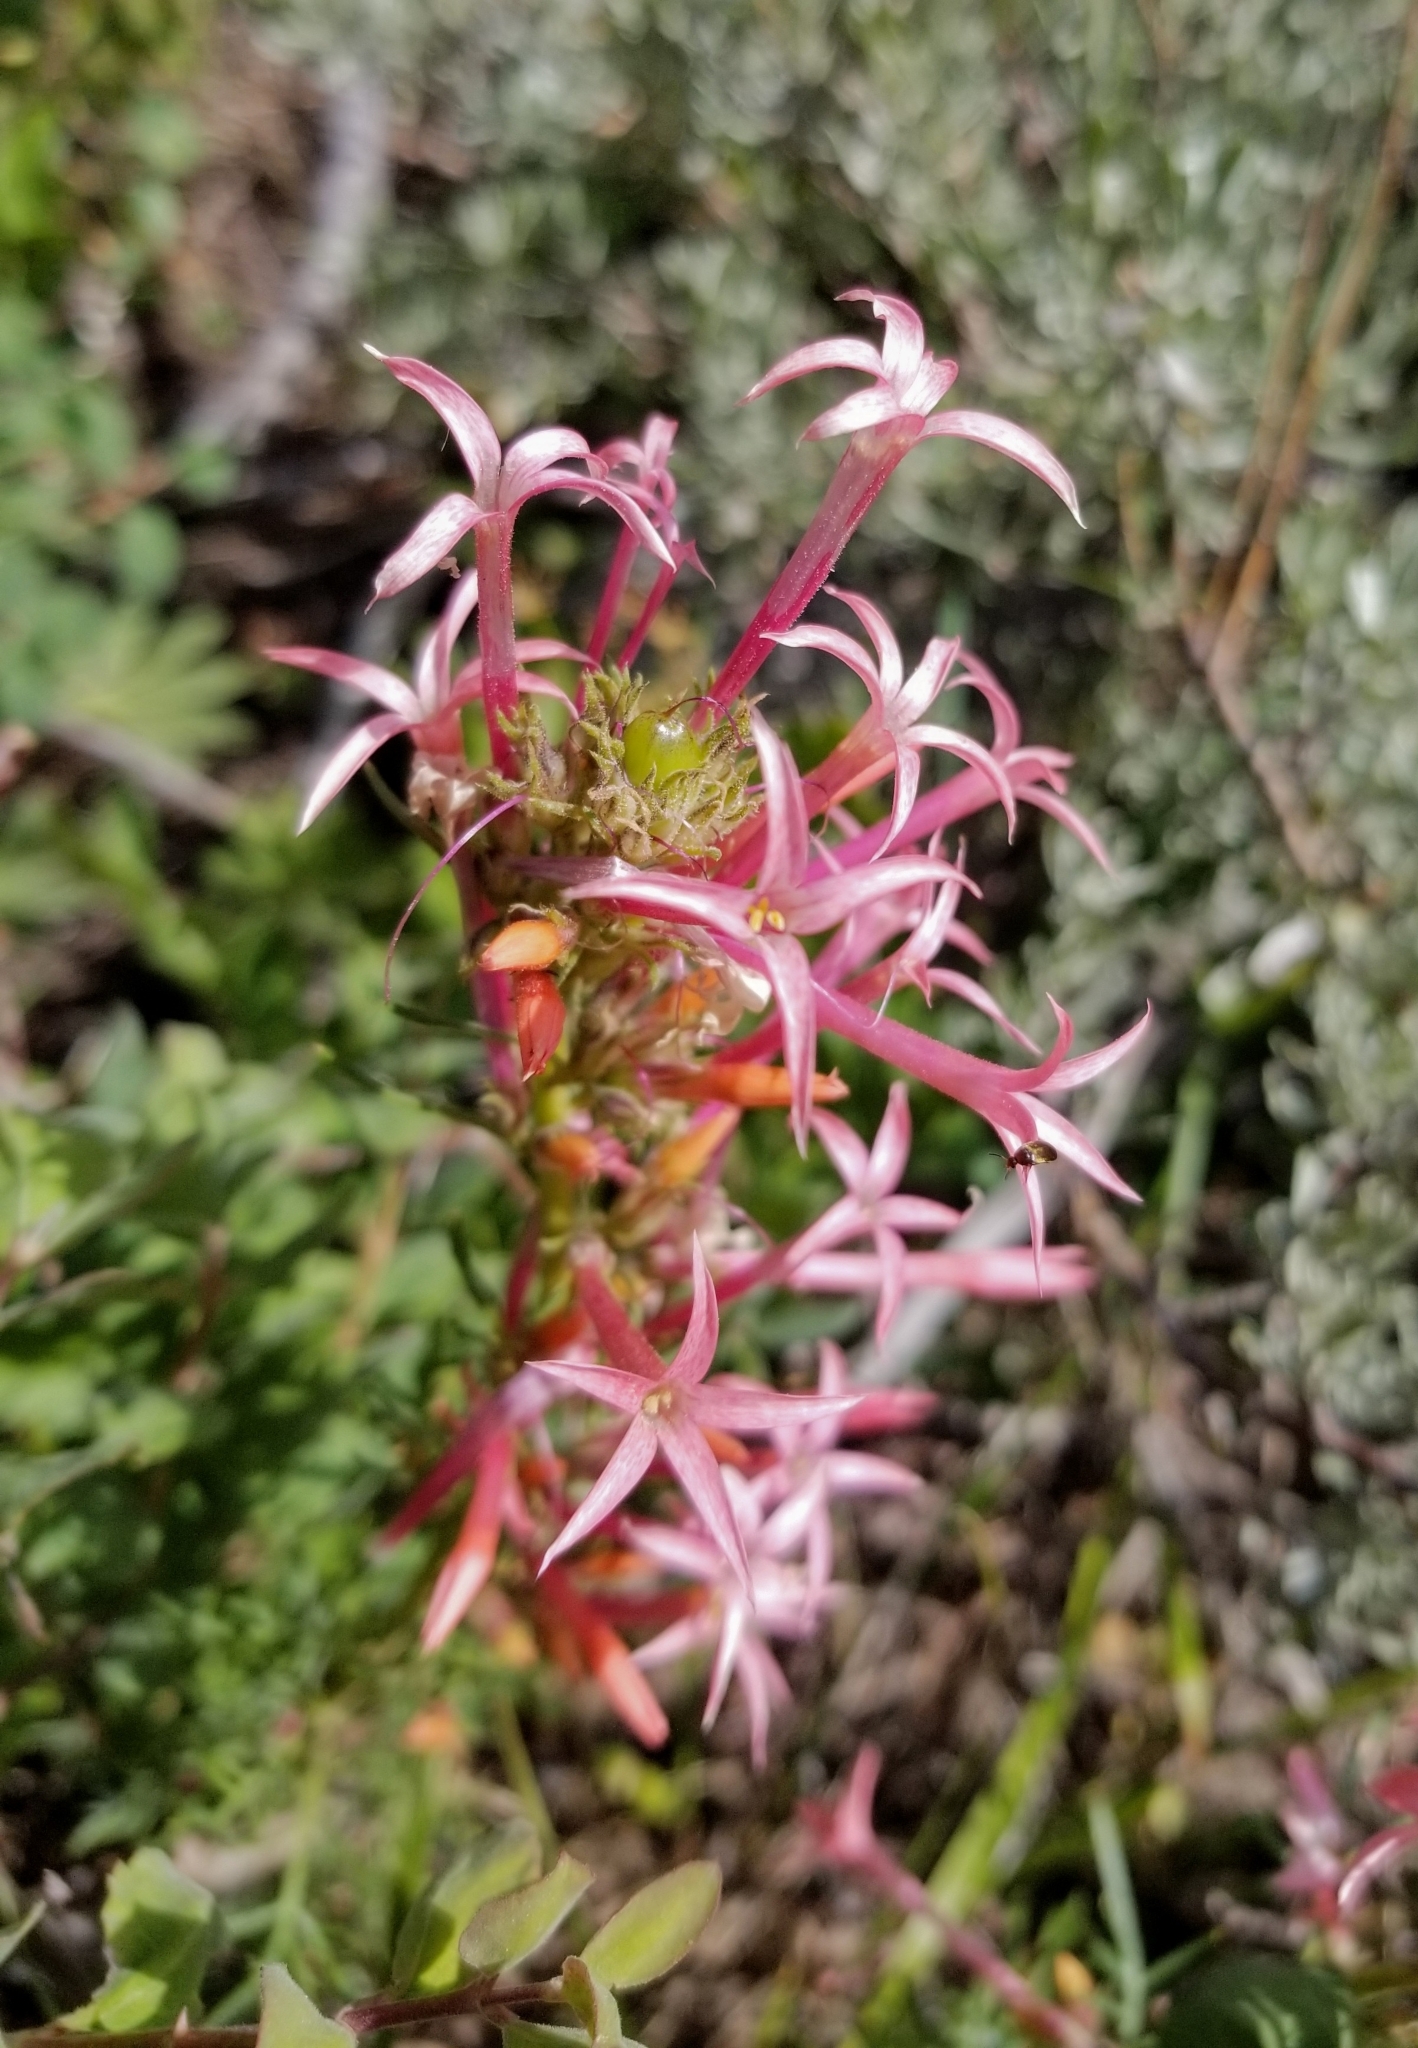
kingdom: Plantae
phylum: Tracheophyta
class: Magnoliopsida
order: Ericales
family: Polemoniaceae
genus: Ipomopsis
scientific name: Ipomopsis tenuituba
